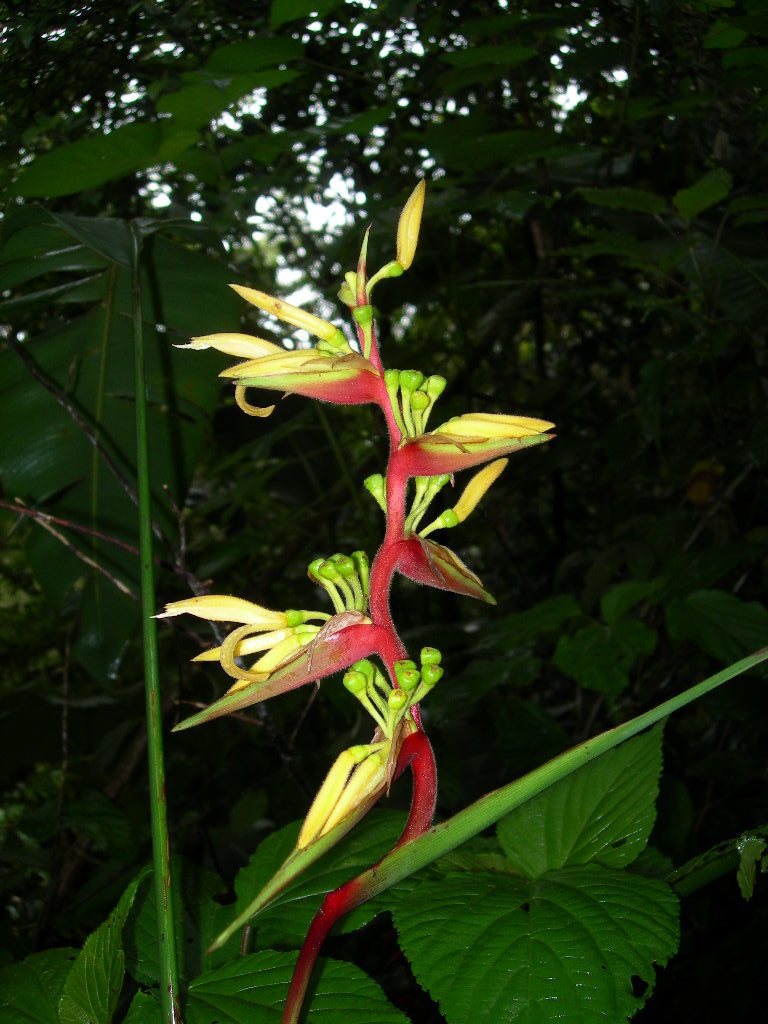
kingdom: Plantae
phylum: Tracheophyta
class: Liliopsida
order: Zingiberales
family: Heliconiaceae
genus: Heliconia
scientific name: Heliconia spissa
